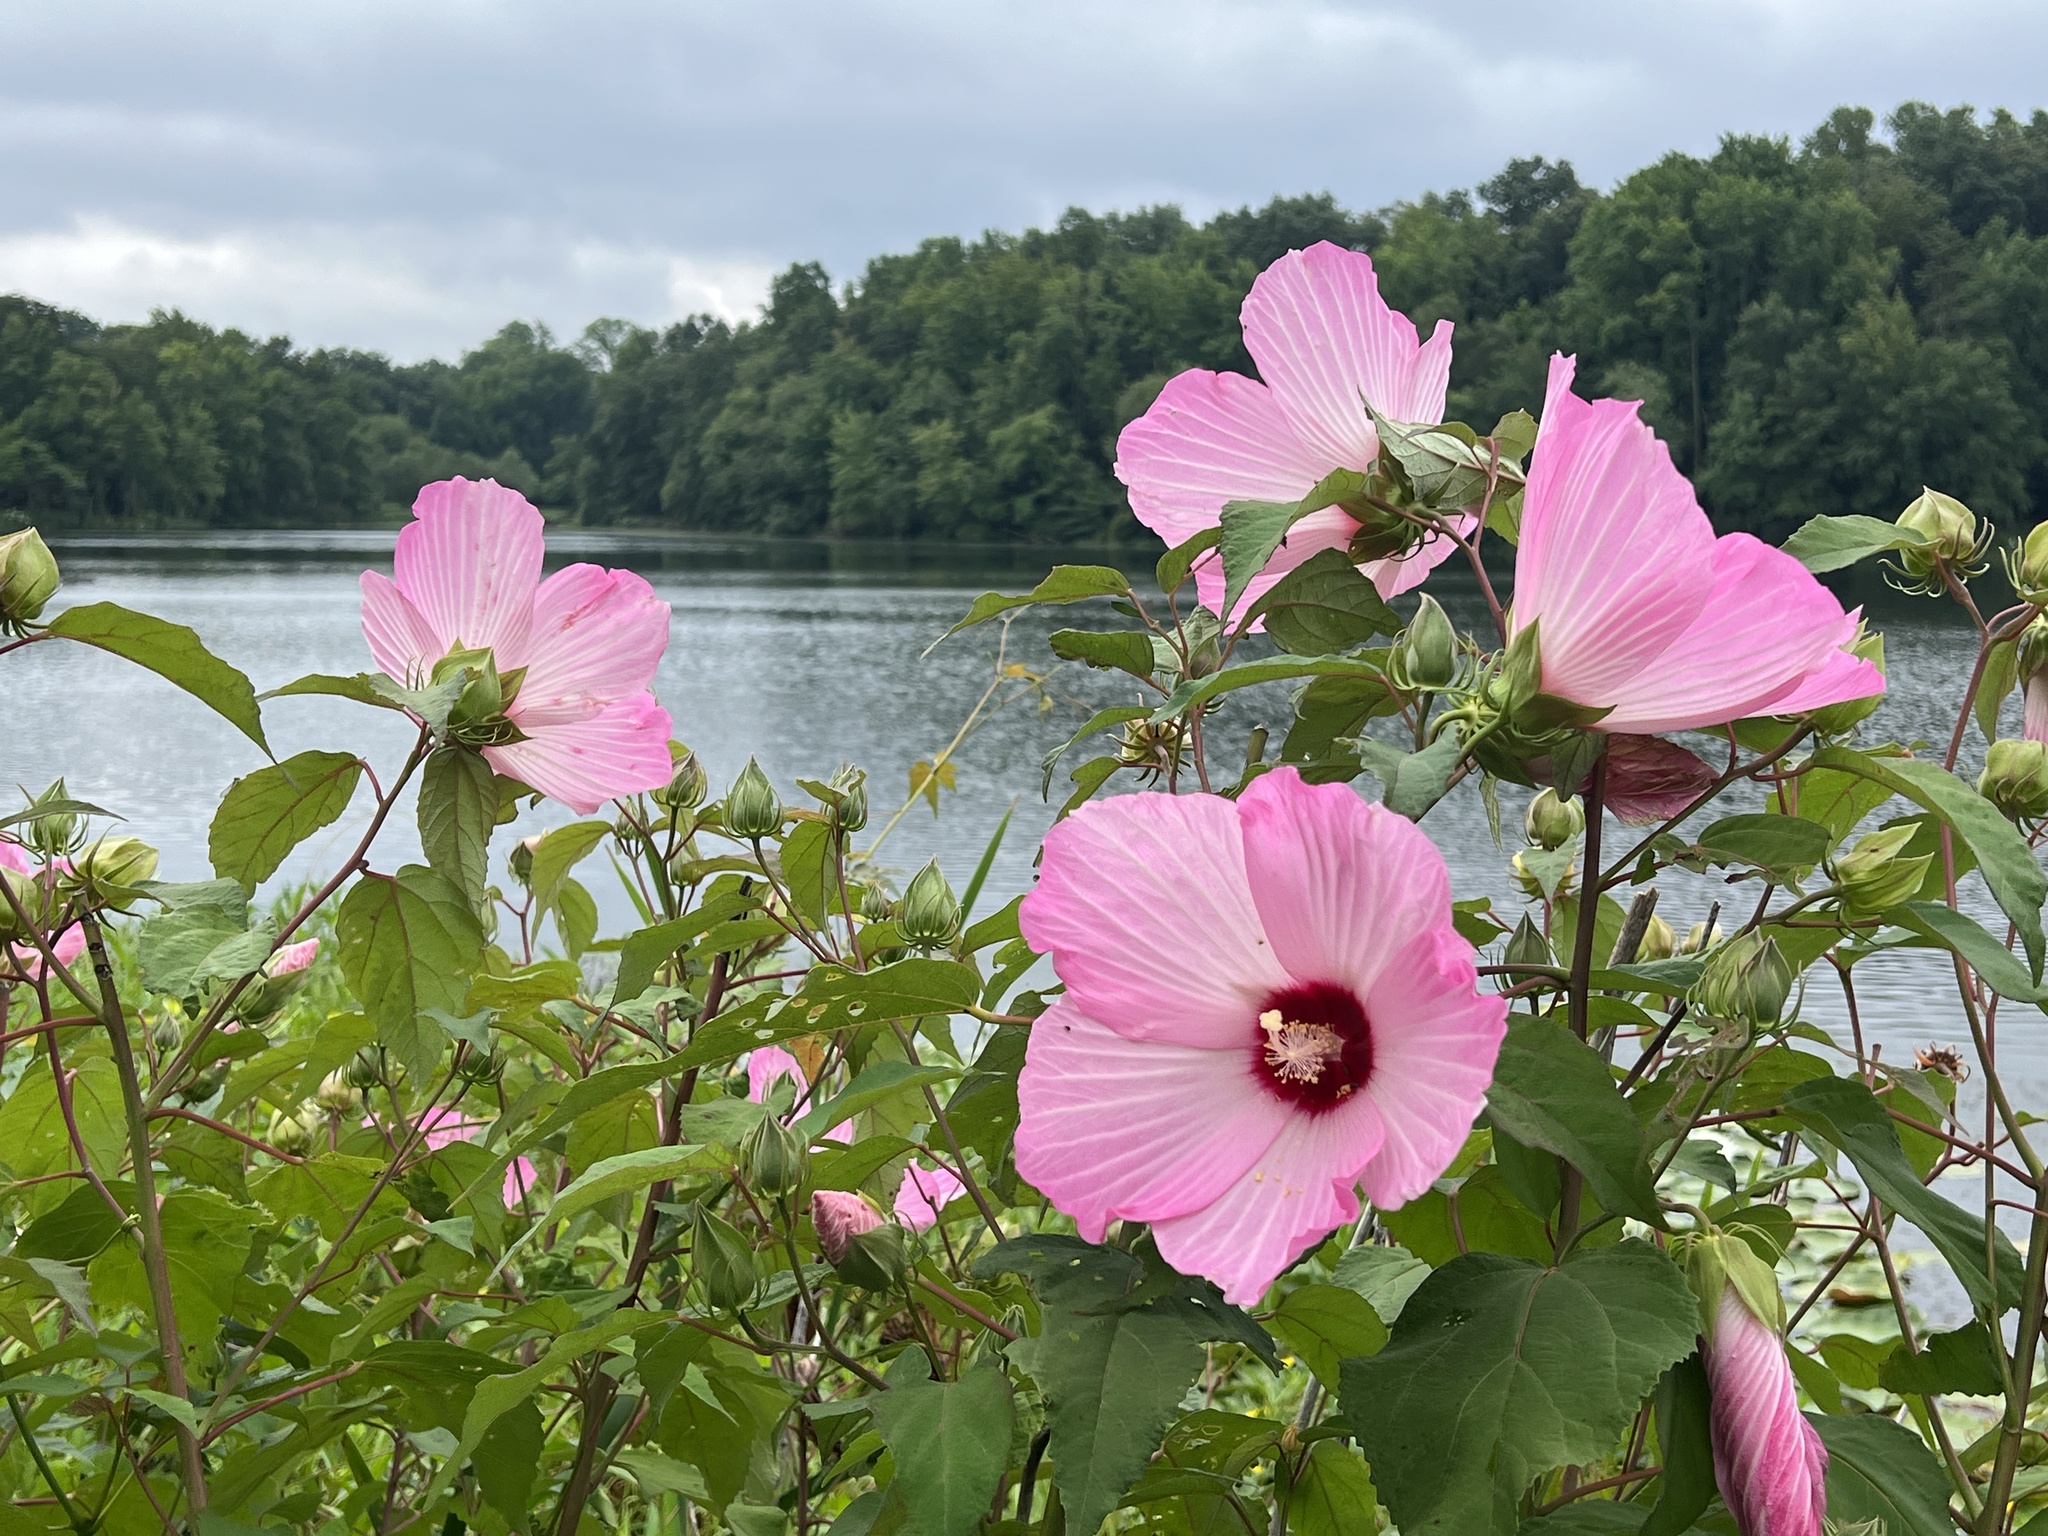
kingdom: Plantae
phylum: Tracheophyta
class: Magnoliopsida
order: Malvales
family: Malvaceae
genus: Hibiscus
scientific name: Hibiscus moscheutos
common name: Common rose-mallow
